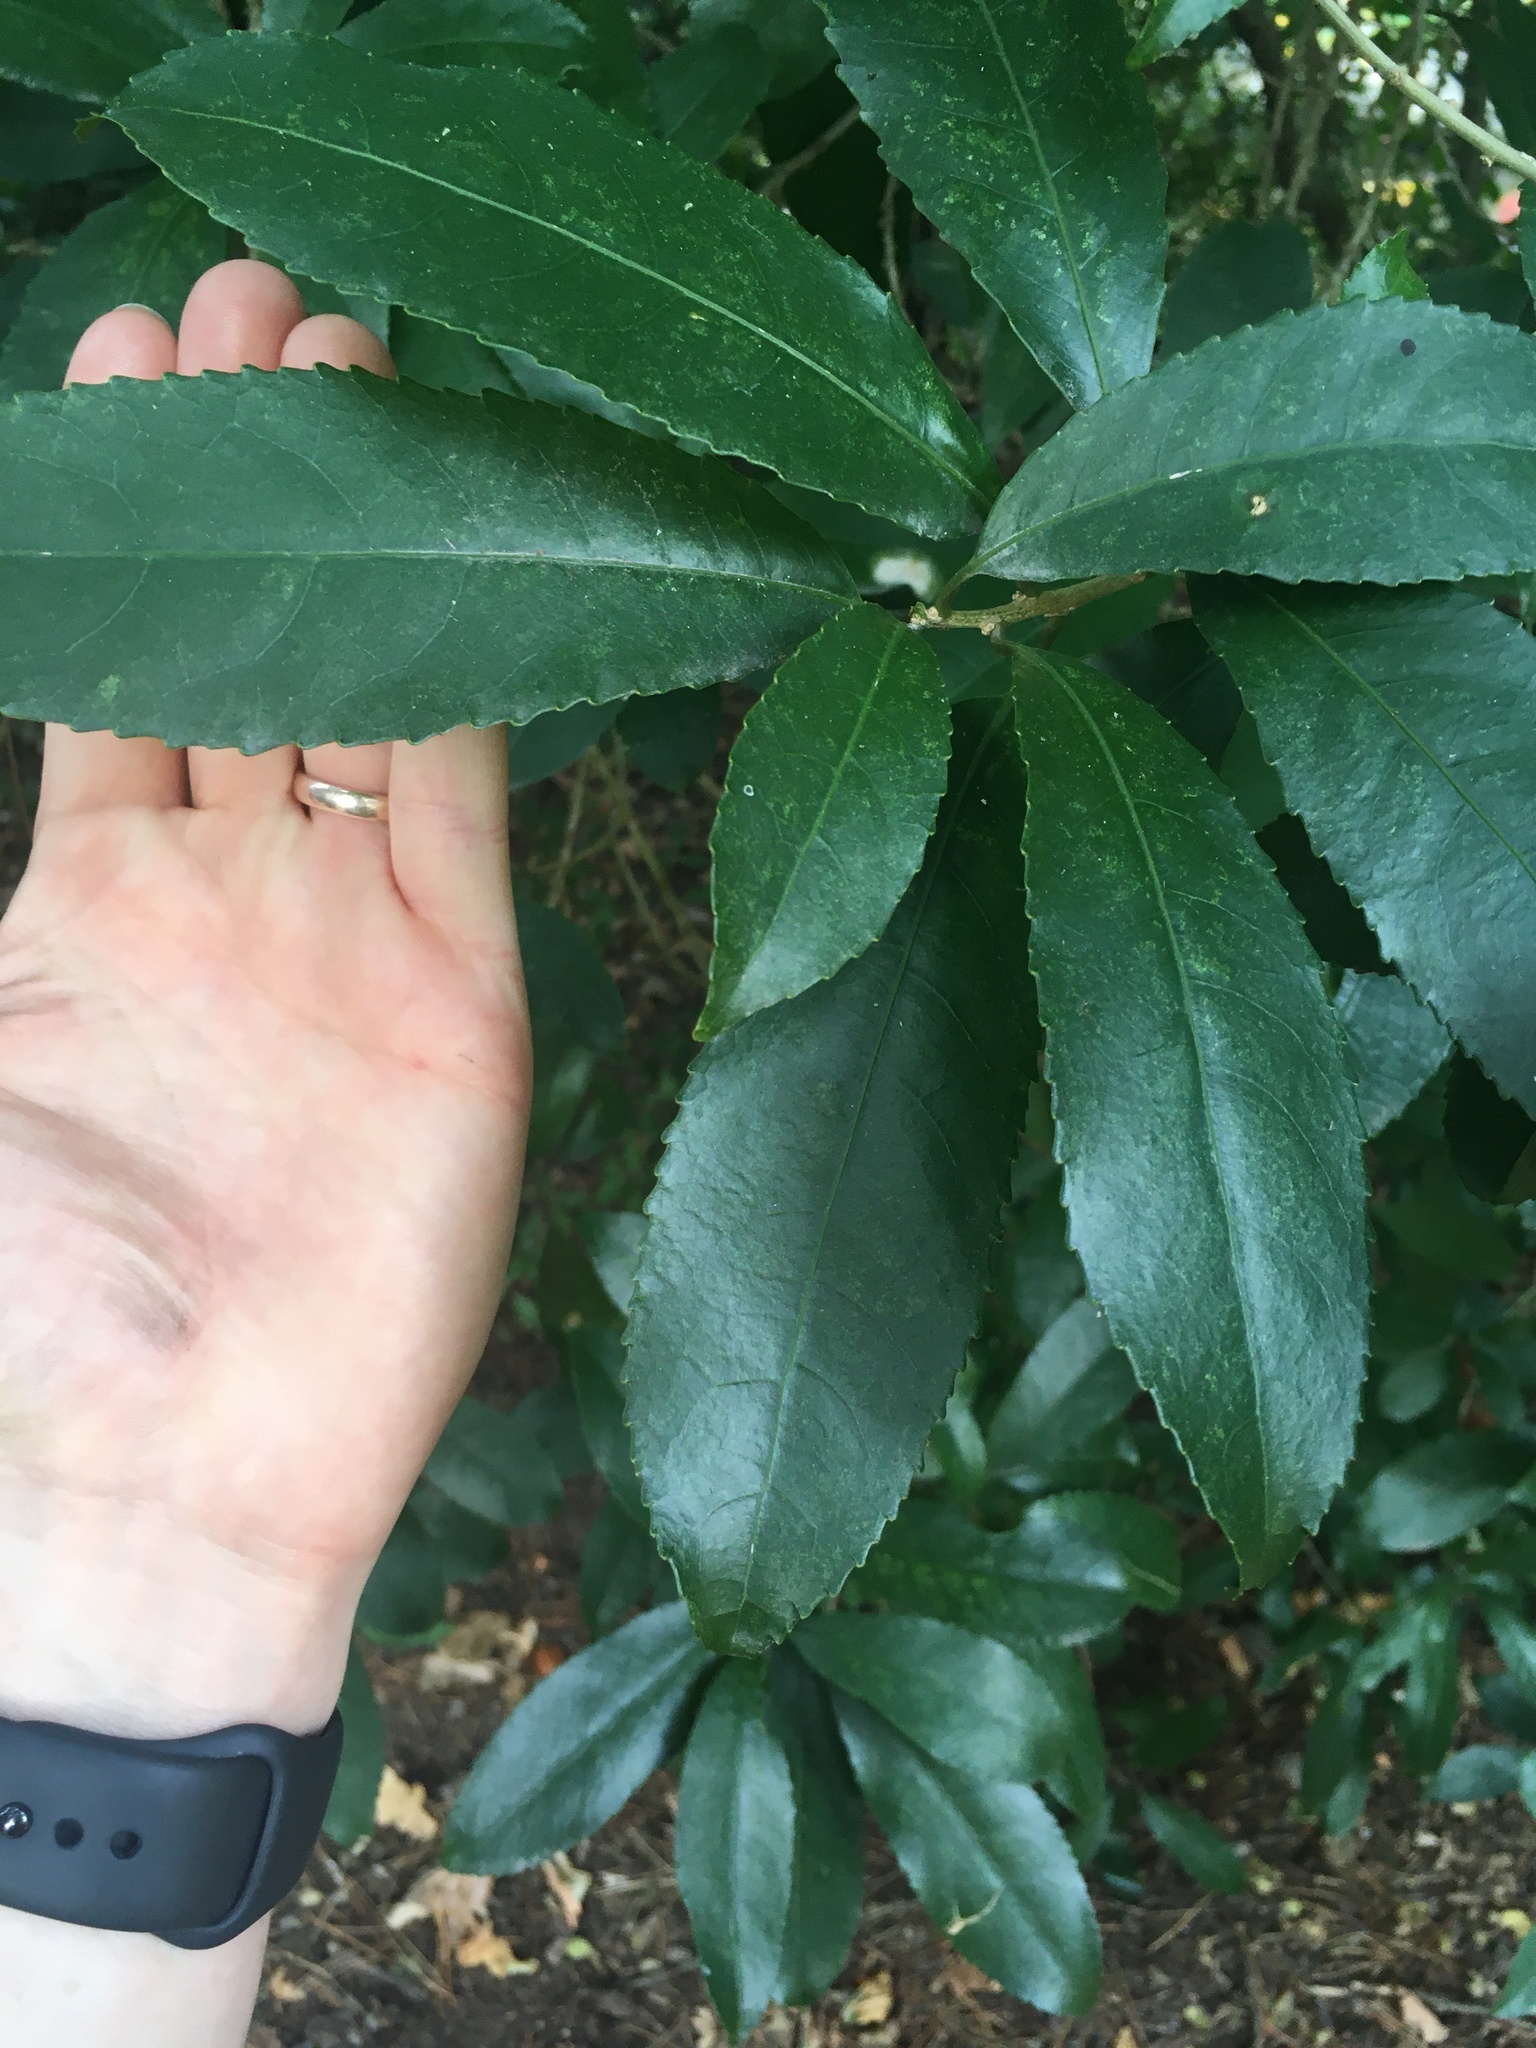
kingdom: Plantae
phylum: Tracheophyta
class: Magnoliopsida
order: Malpighiales
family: Violaceae
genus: Melicytus
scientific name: Melicytus ramiflorus
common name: Mahoe
